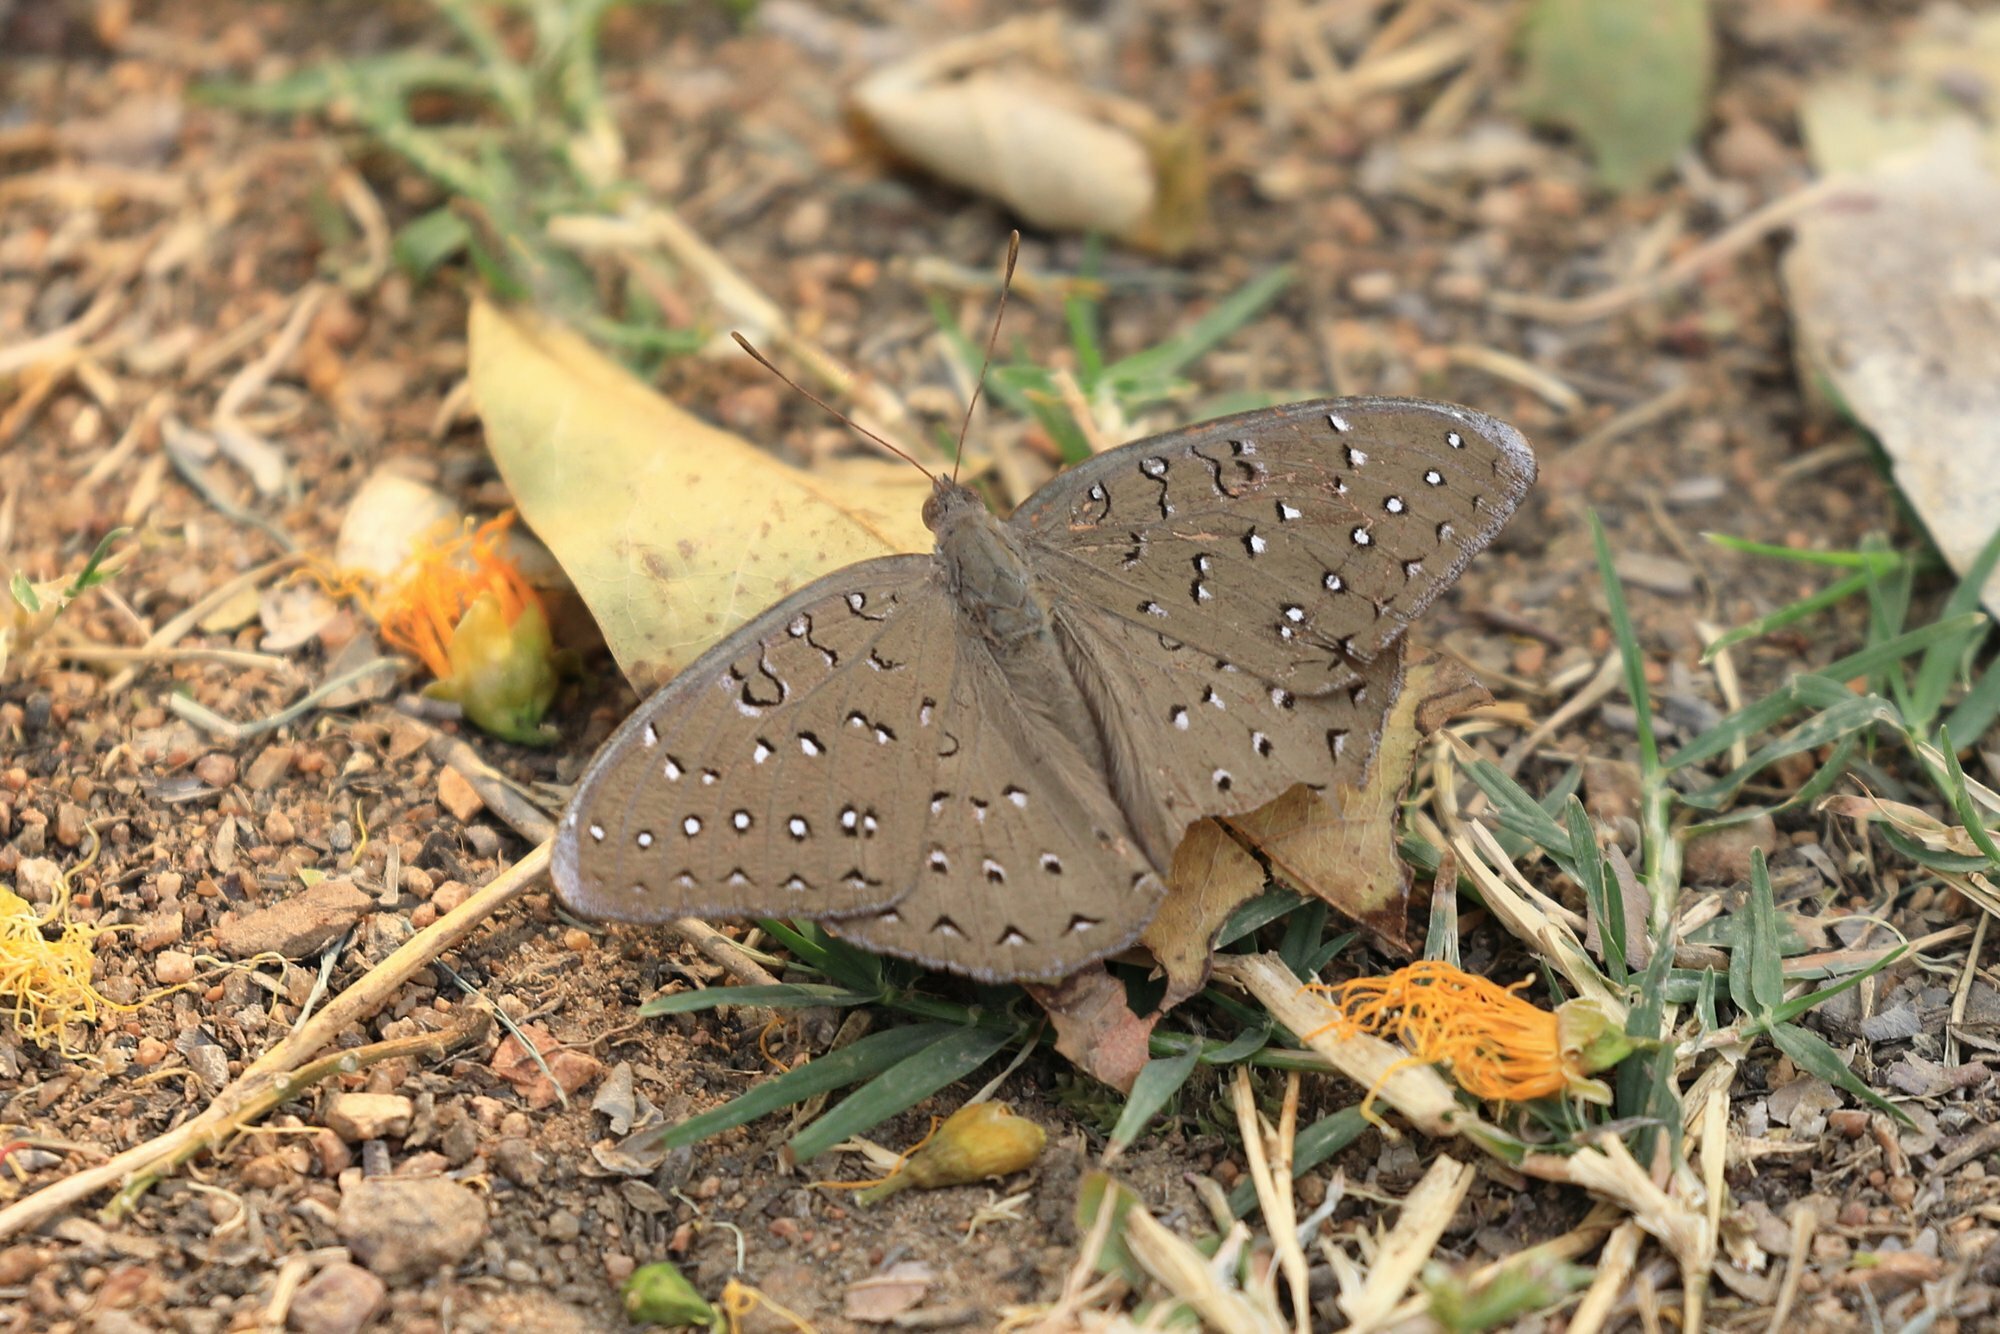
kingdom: Animalia
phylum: Arthropoda
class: Insecta
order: Lepidoptera
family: Nymphalidae
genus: Hamanumida
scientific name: Hamanumida daedalus
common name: Guinea-fowl butterfly
